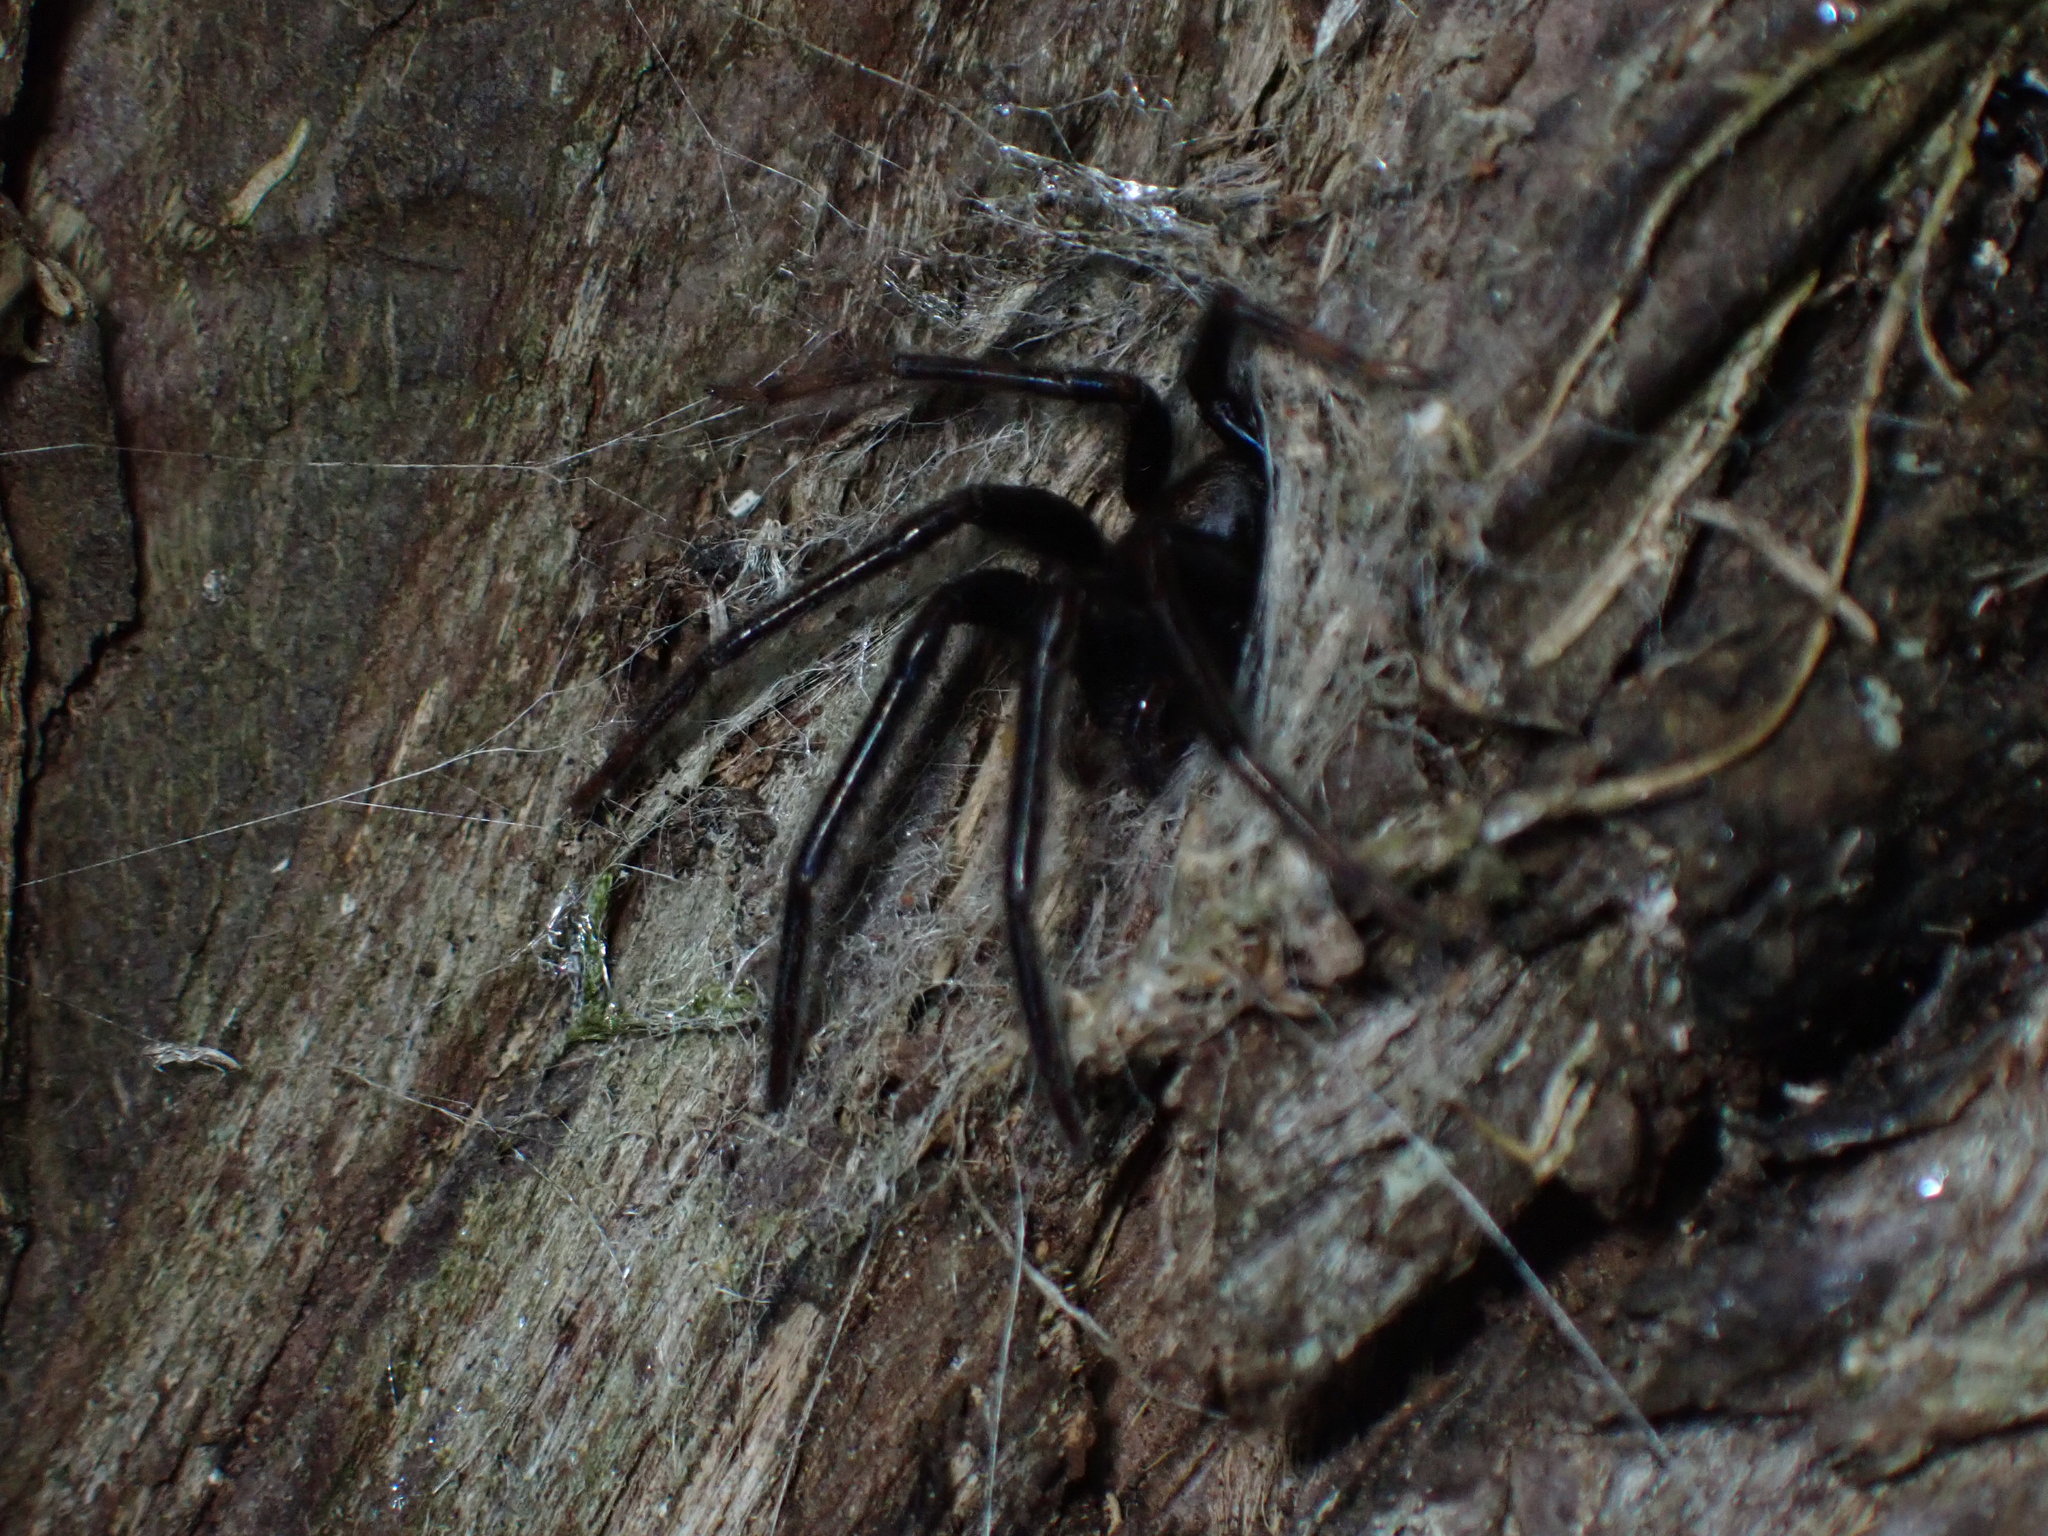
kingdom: Animalia
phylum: Arthropoda
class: Arachnida
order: Araneae
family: Segestriidae
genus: Segestria
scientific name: Segestria florentina
